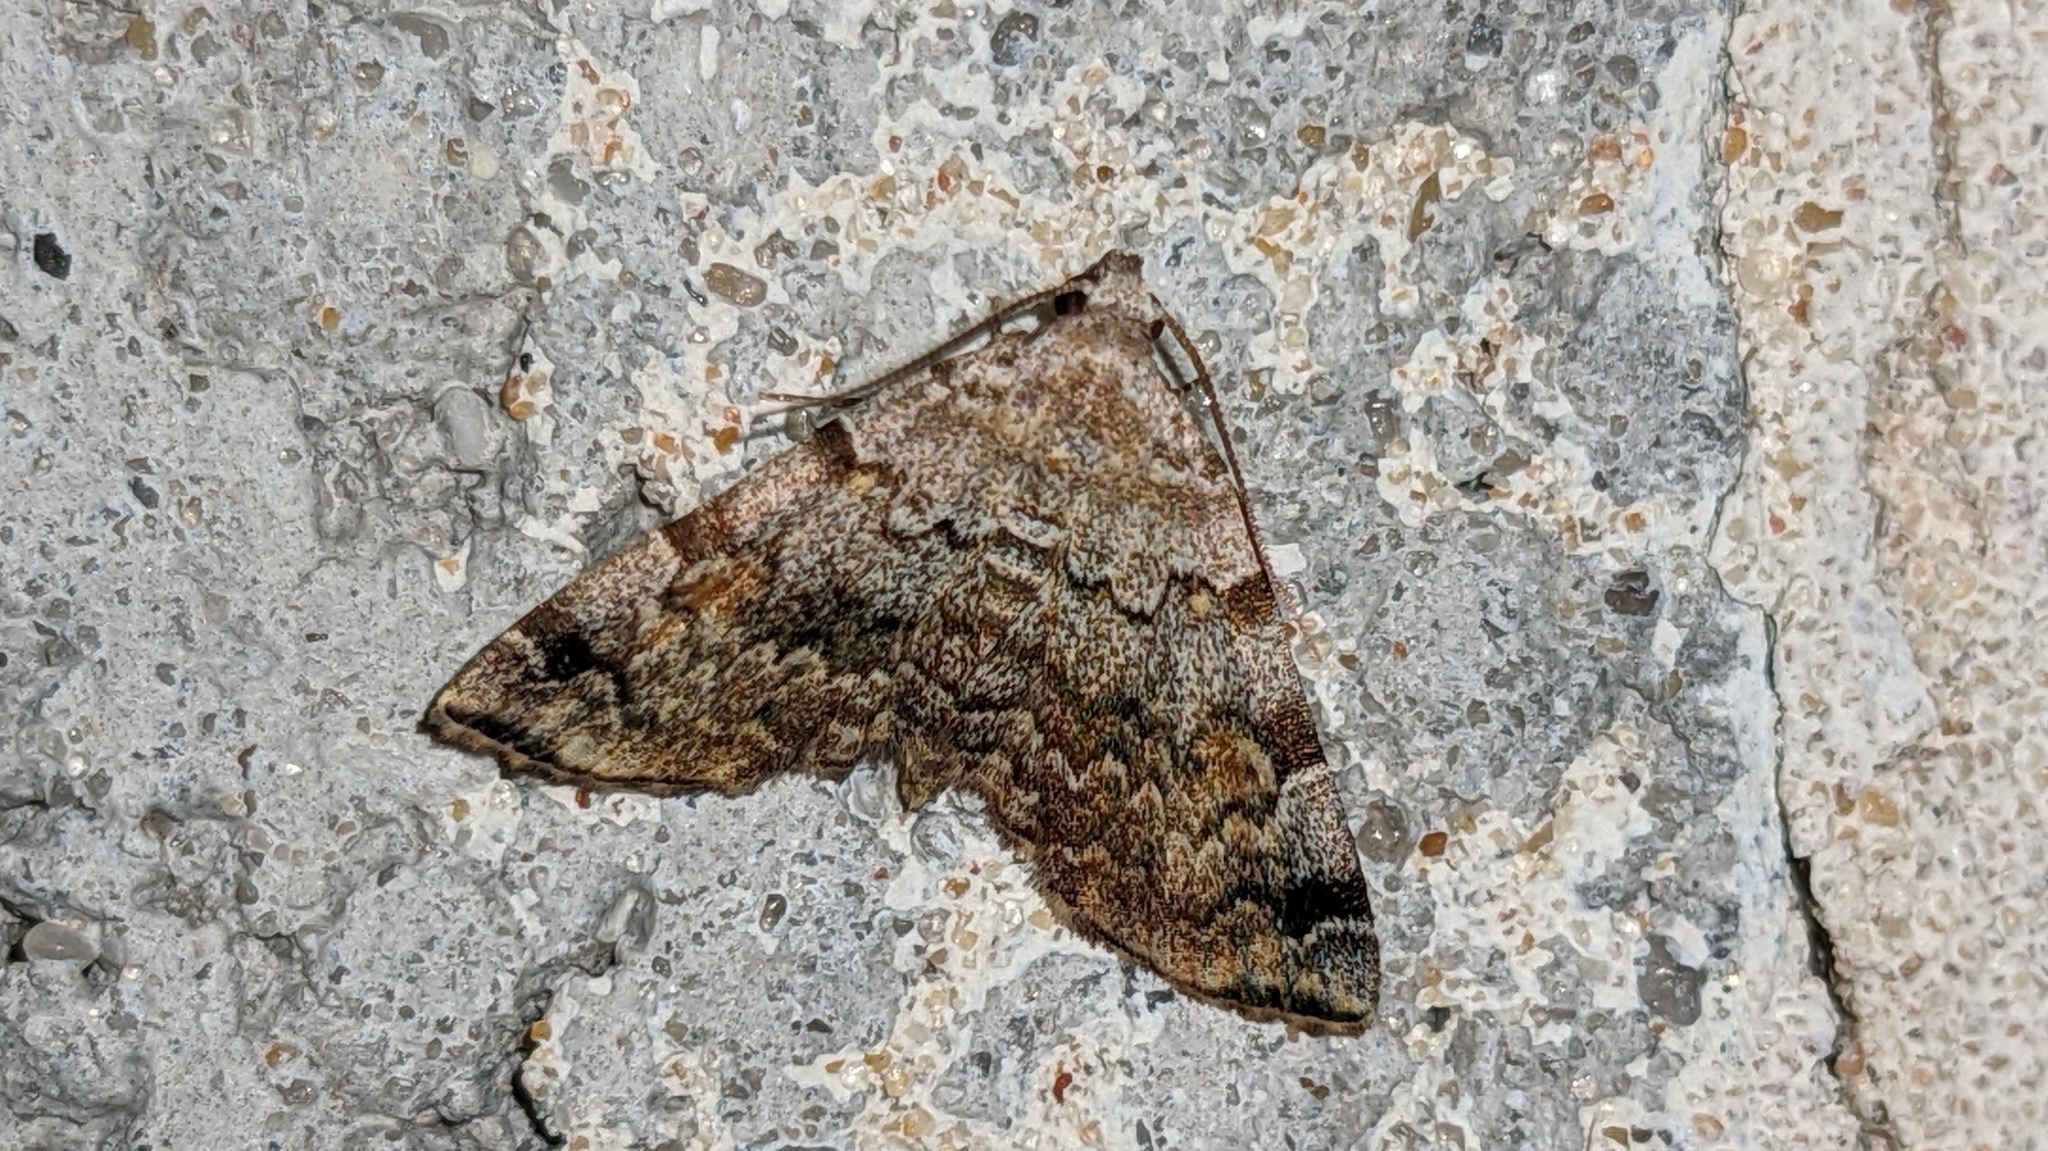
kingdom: Animalia
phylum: Arthropoda
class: Insecta
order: Lepidoptera
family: Erebidae
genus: Idia
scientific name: Idia americalis
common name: American idia moth
